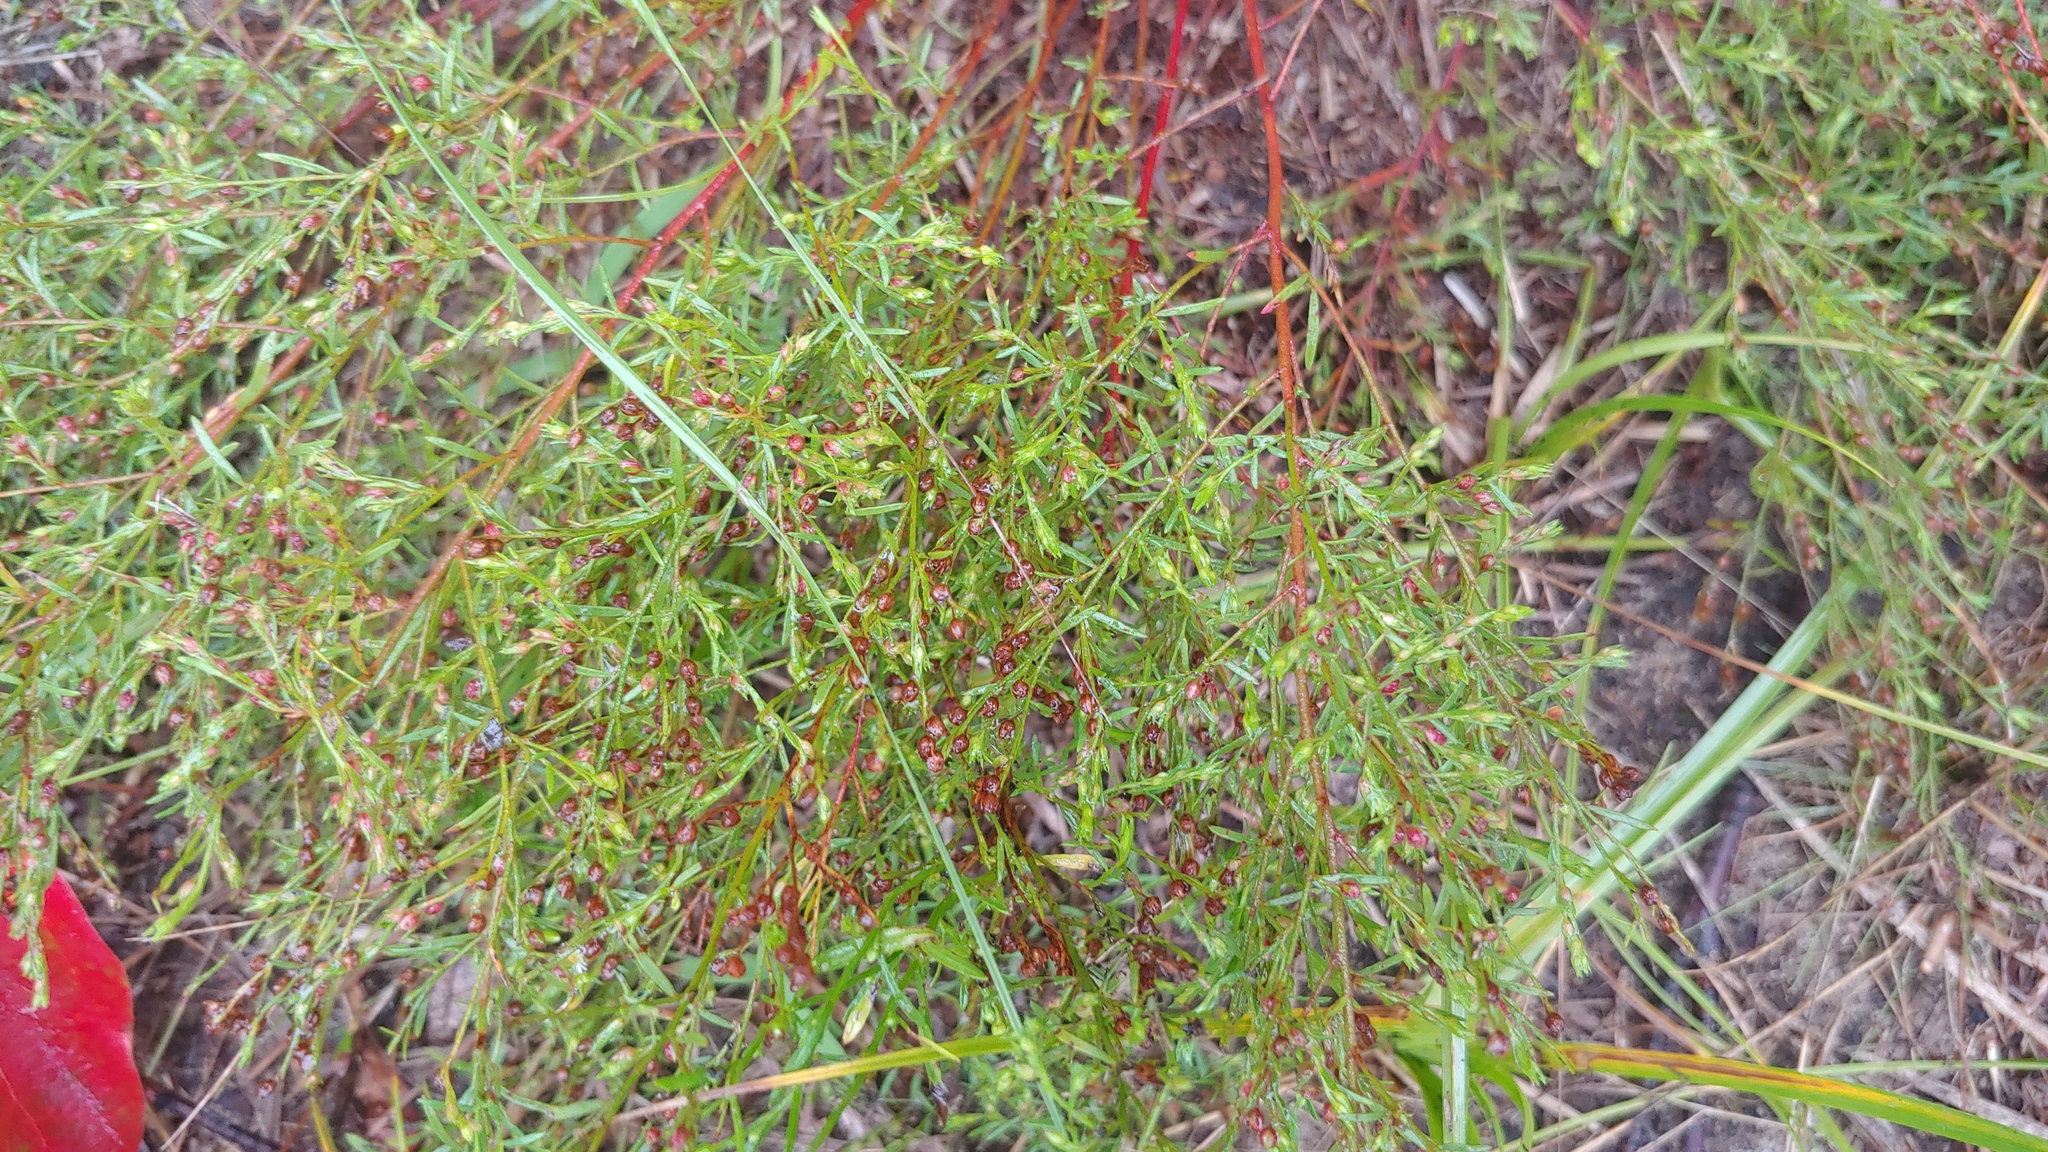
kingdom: Plantae
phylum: Tracheophyta
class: Magnoliopsida
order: Malvales
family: Cistaceae
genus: Lechea
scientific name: Lechea pulchella
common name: Leggett's pinweed
